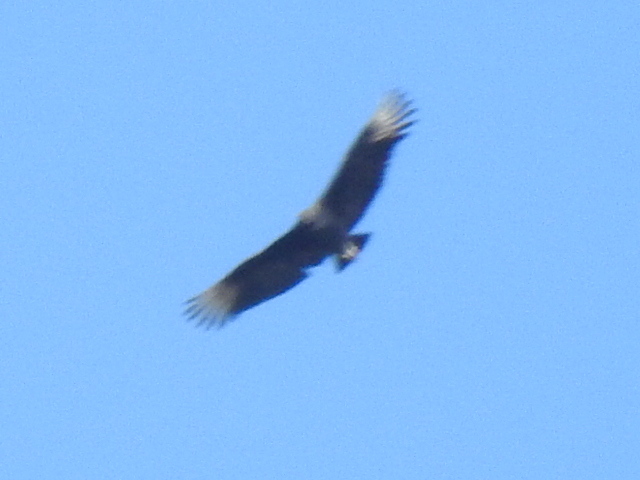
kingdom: Animalia
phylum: Chordata
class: Aves
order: Accipitriformes
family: Cathartidae
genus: Coragyps
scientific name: Coragyps atratus
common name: Black vulture
